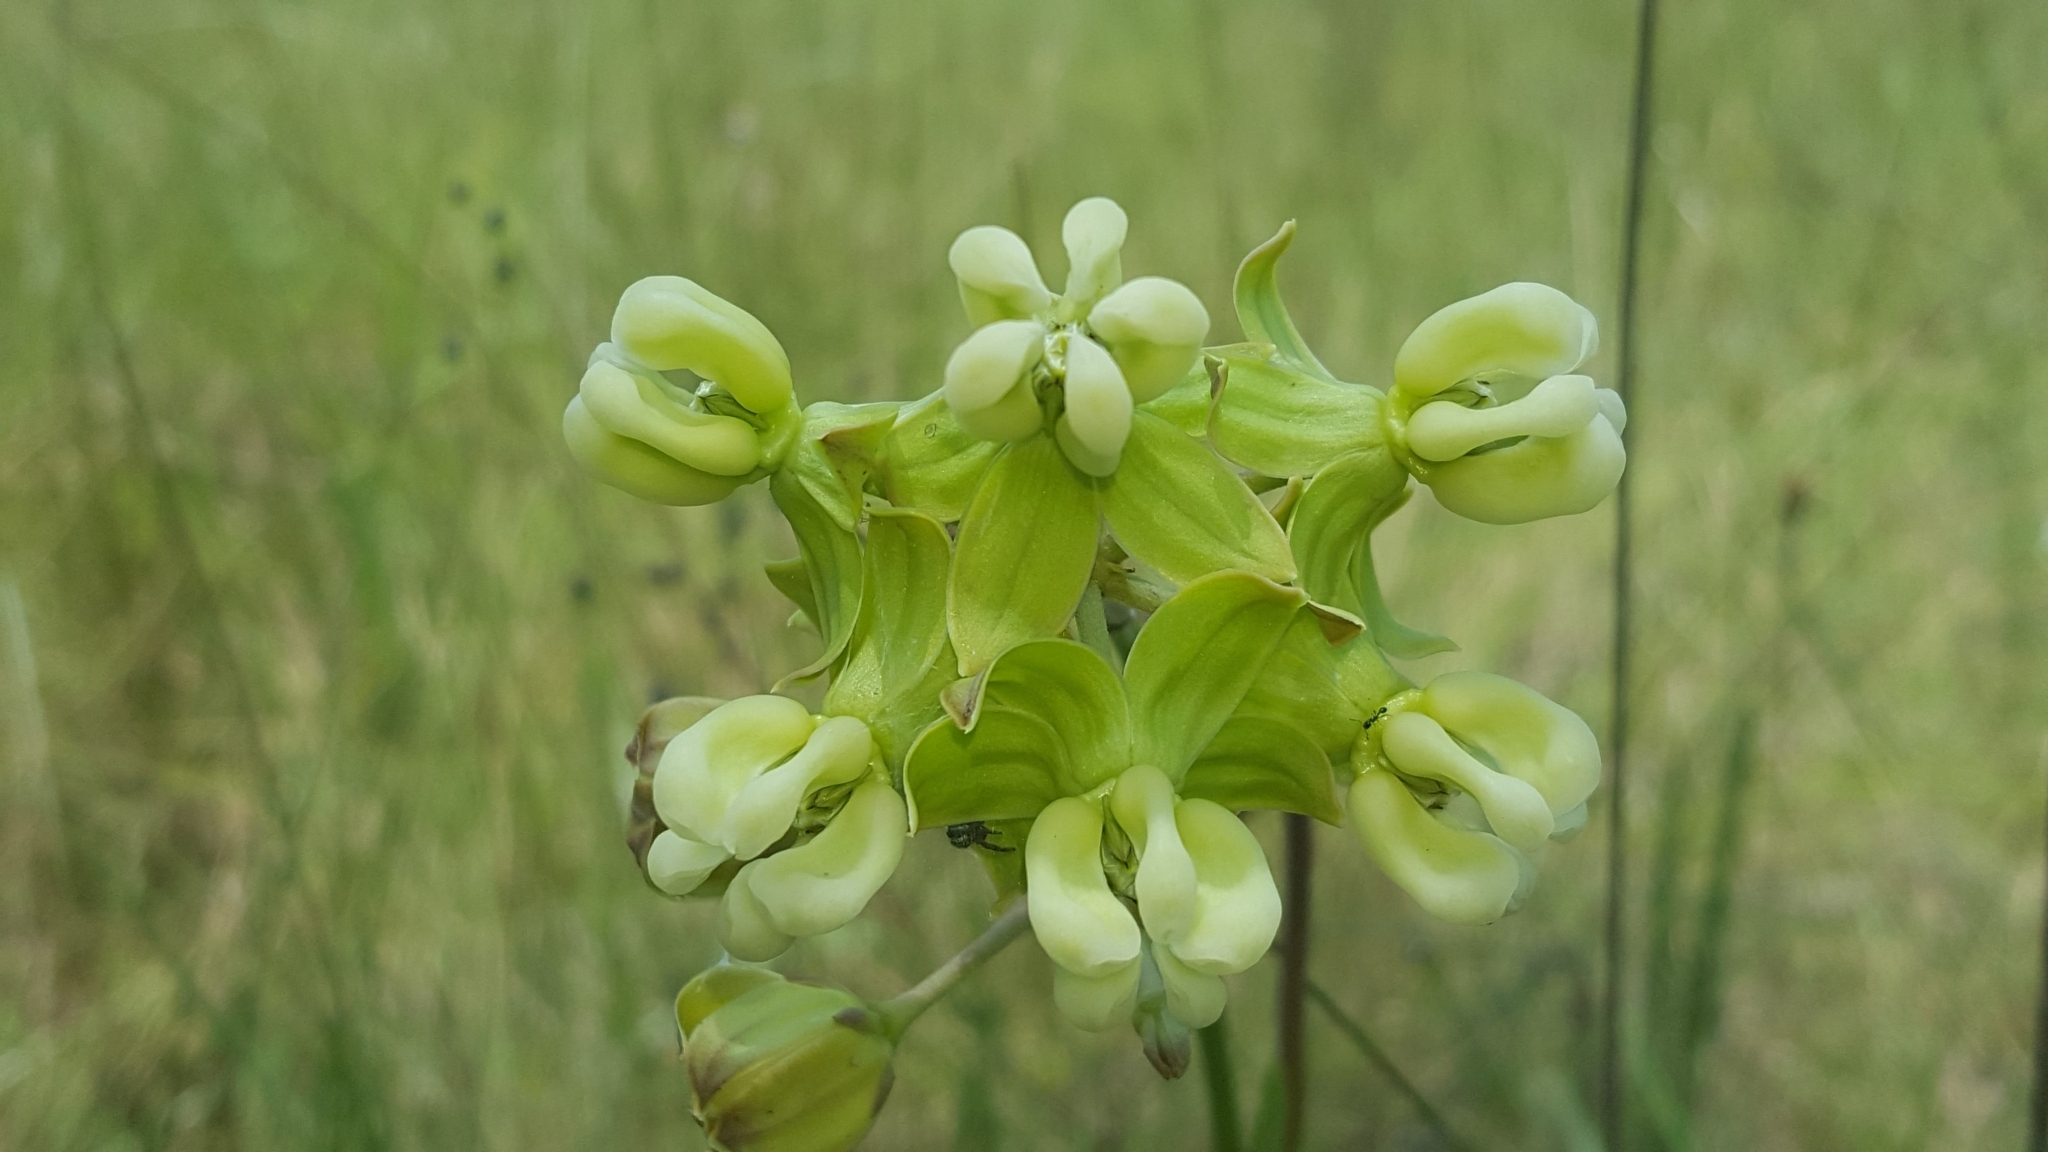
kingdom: Plantae
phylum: Tracheophyta
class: Magnoliopsida
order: Gentianales
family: Apocynaceae
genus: Asclepias
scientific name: Asclepias connivens
